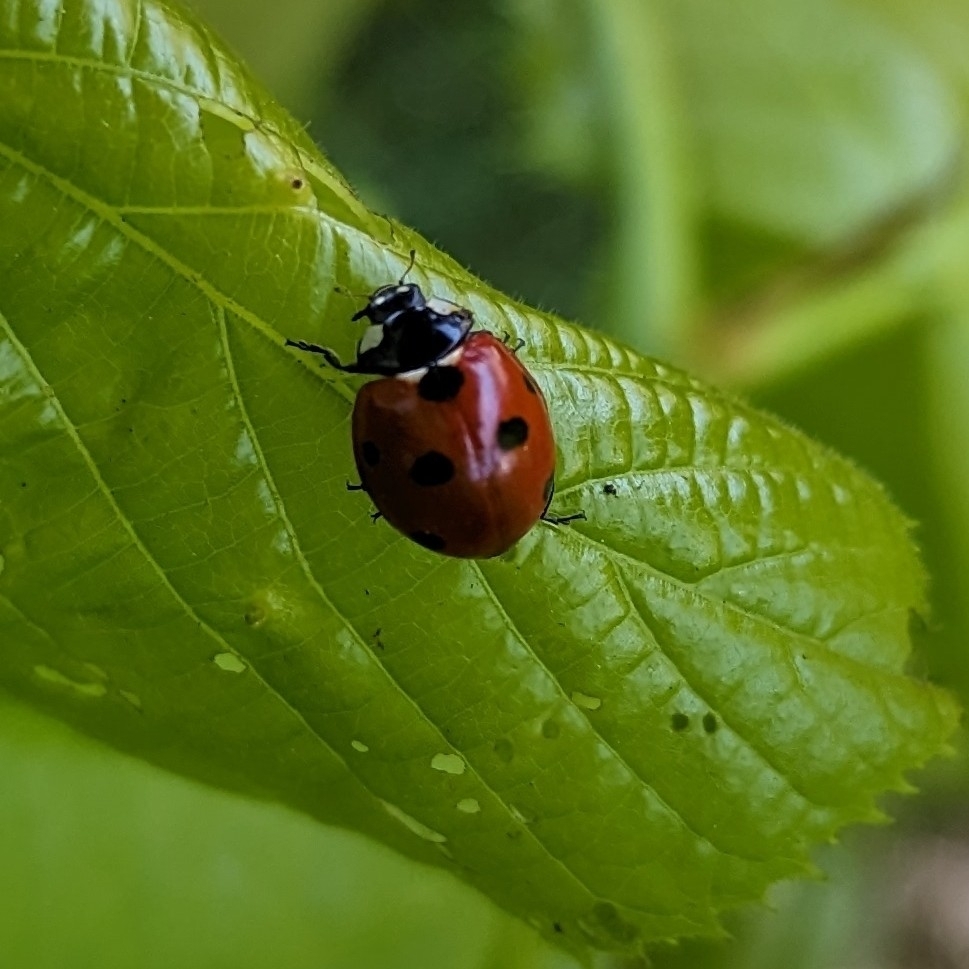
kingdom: Animalia
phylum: Arthropoda
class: Insecta
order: Coleoptera
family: Coccinellidae
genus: Coccinella
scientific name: Coccinella septempunctata
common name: Sevenspotted lady beetle
